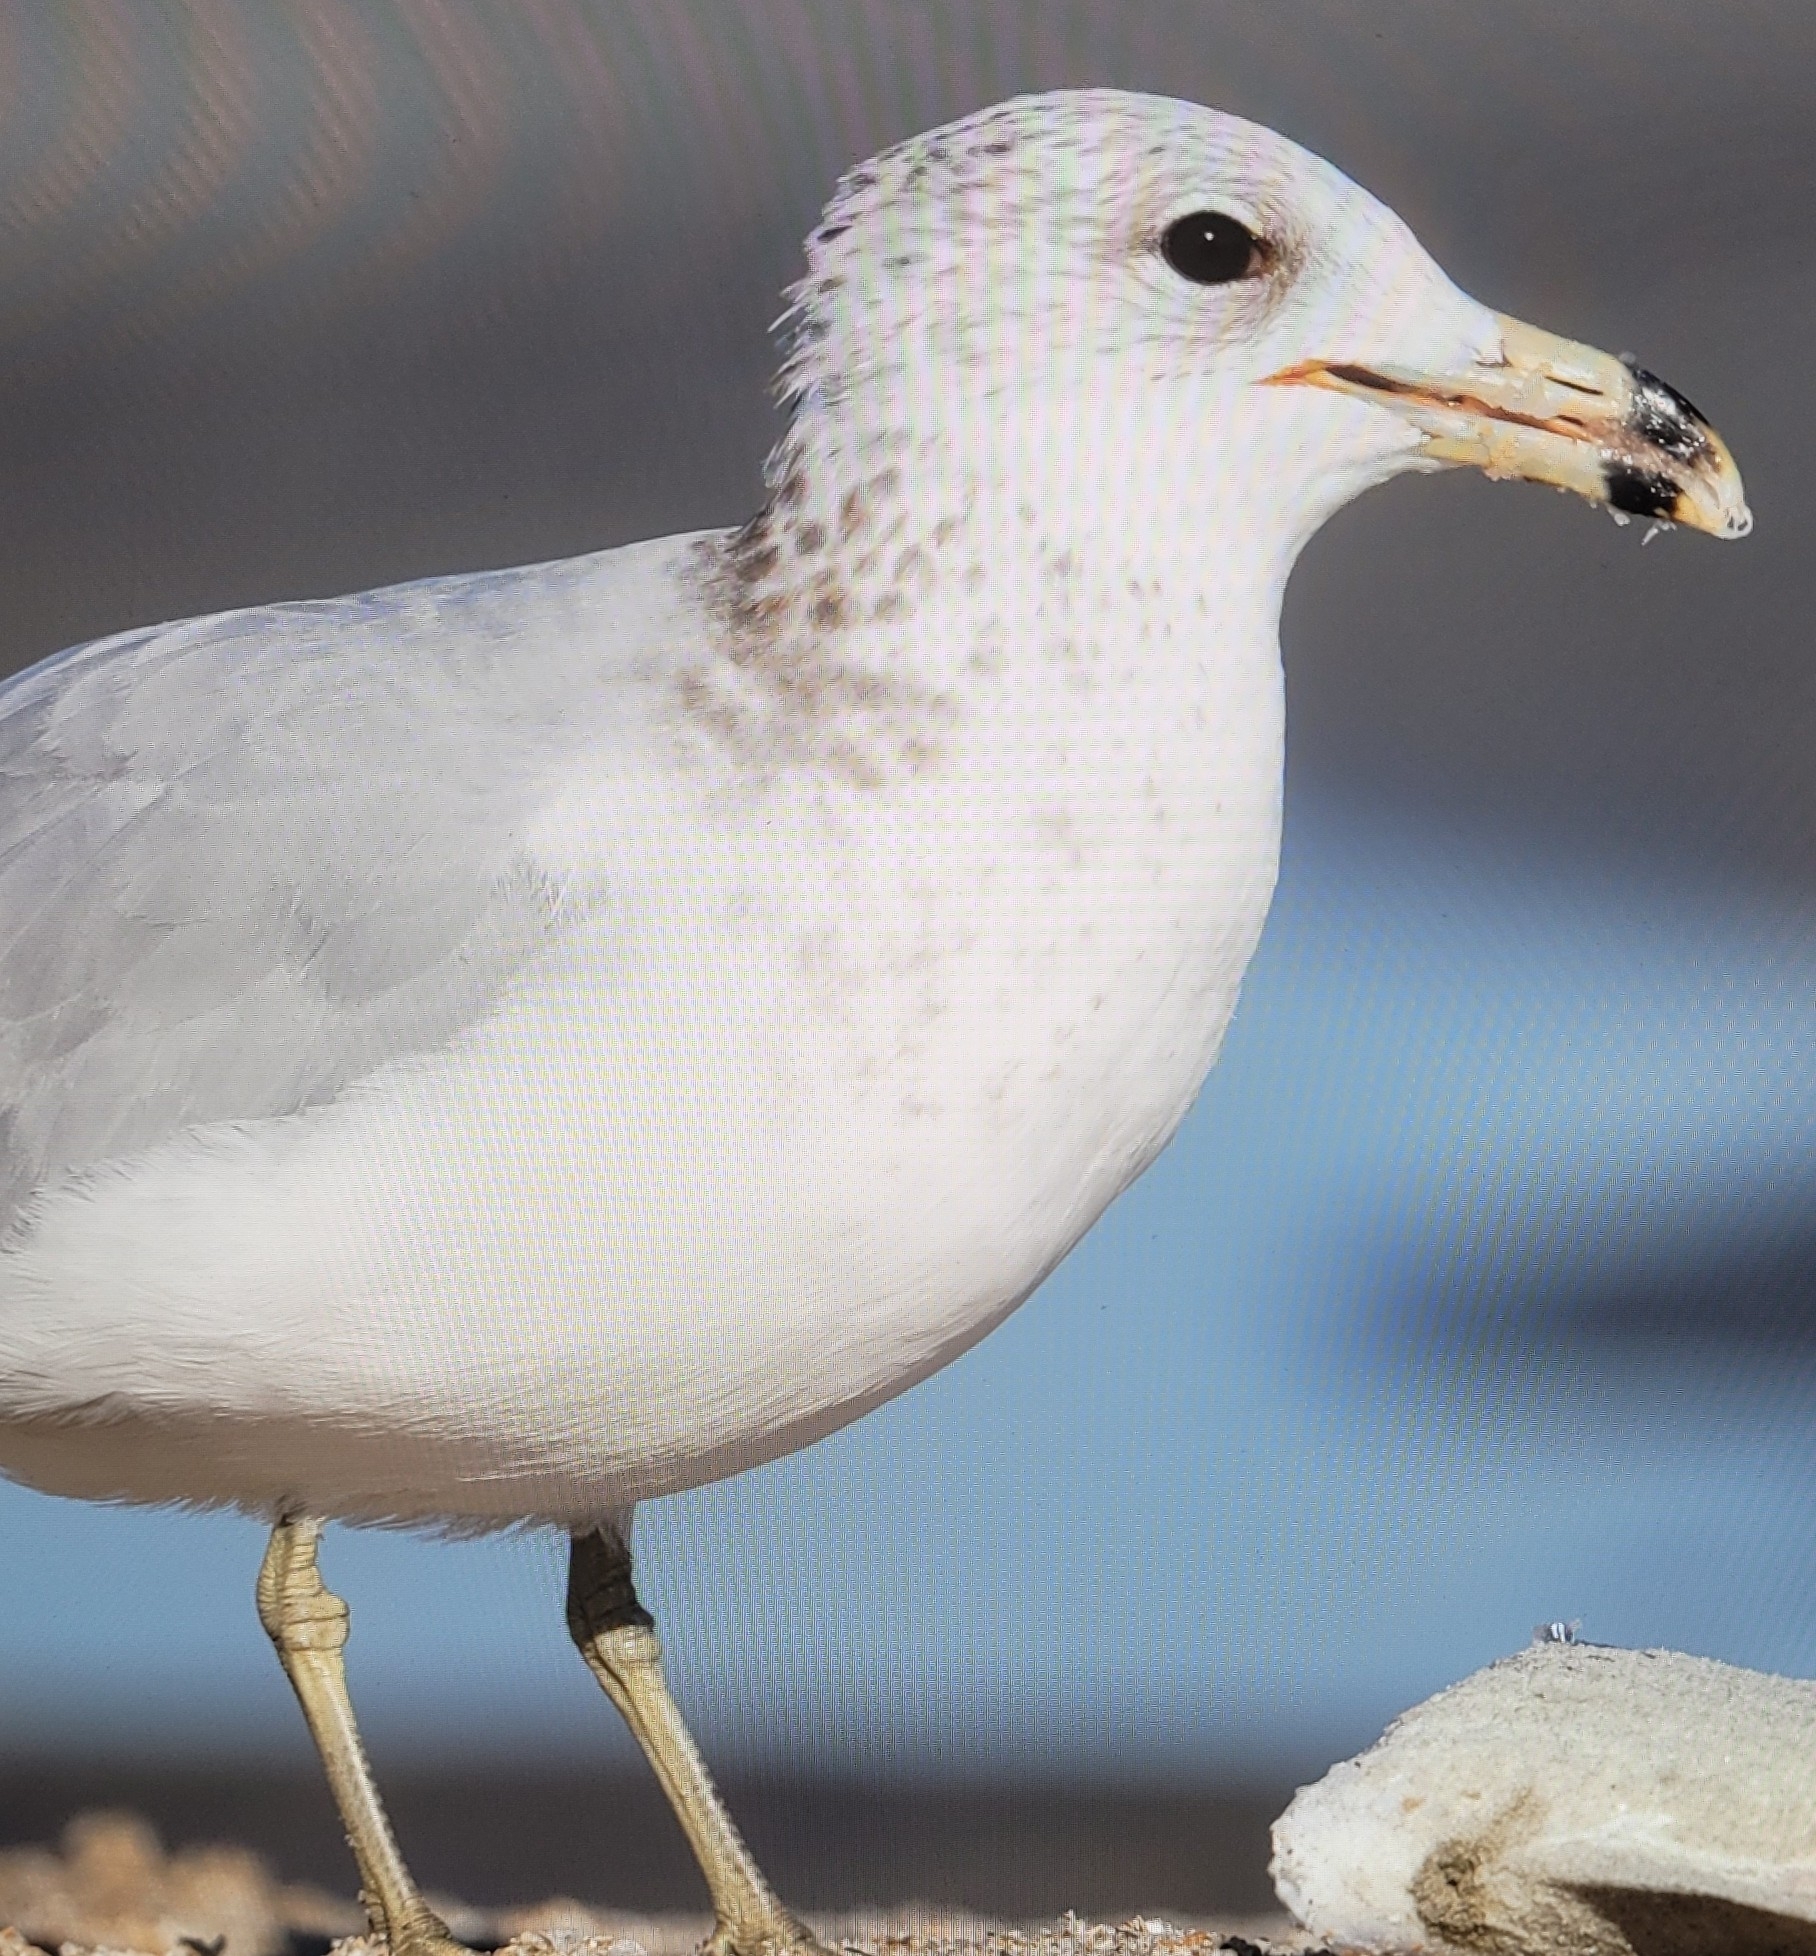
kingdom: Animalia
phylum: Chordata
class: Aves
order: Charadriiformes
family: Laridae
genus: Larus
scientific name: Larus delawarensis
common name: Ring-billed gull
